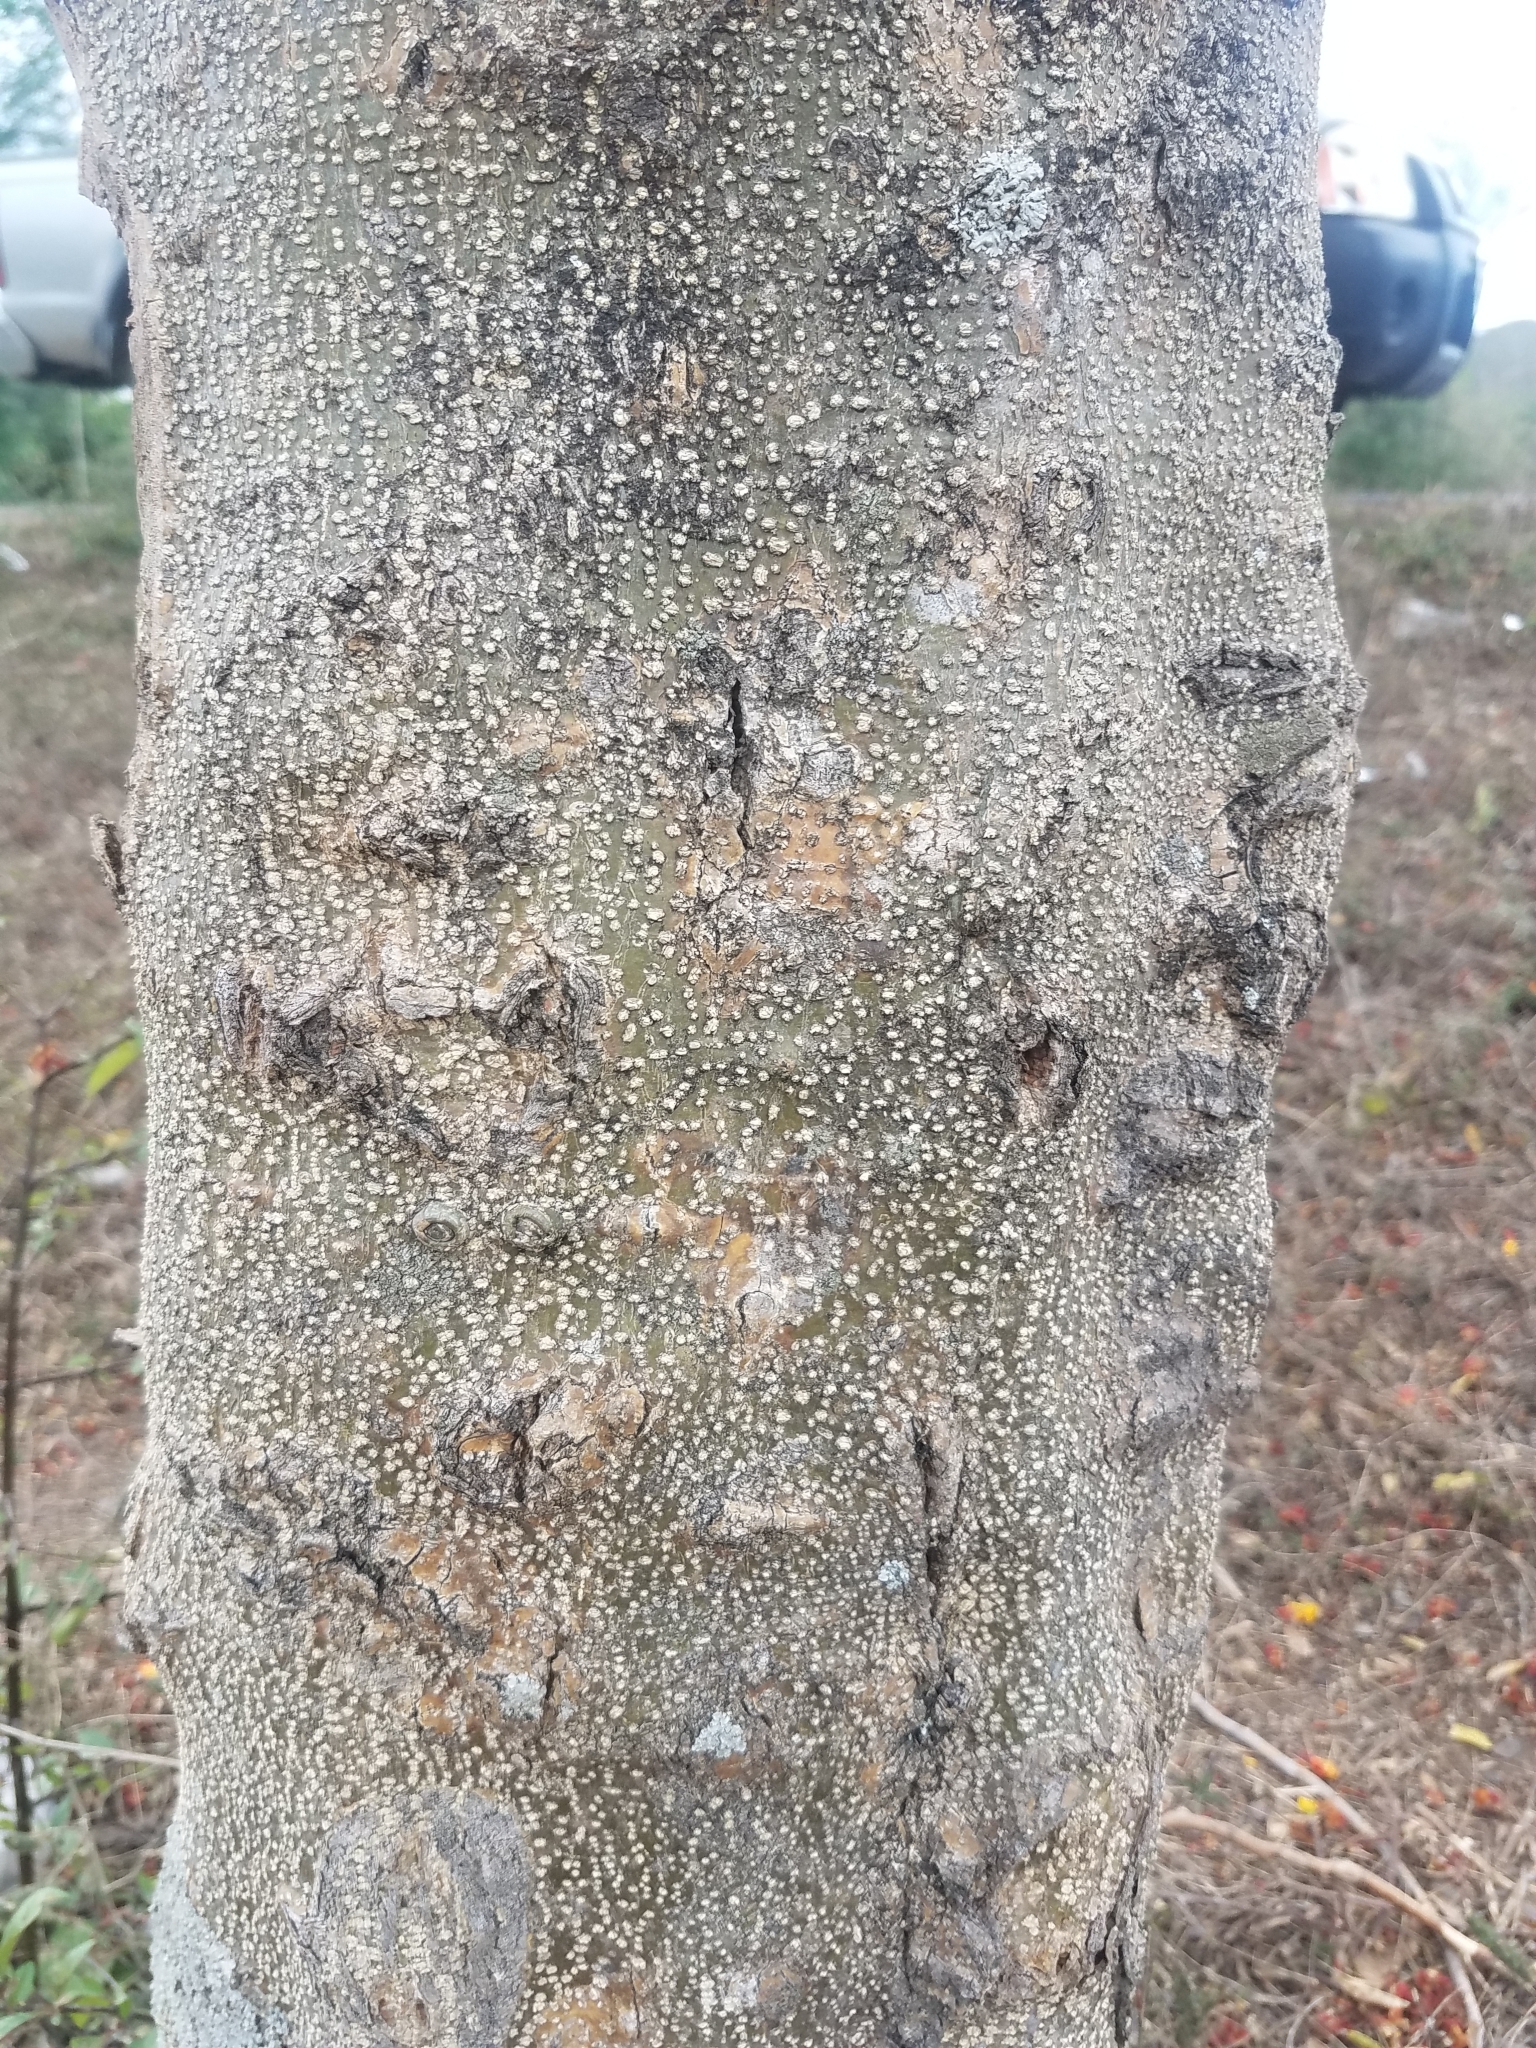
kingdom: Plantae
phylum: Tracheophyta
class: Magnoliopsida
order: Fabales
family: Fabaceae
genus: Erythrostemon
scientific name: Erythrostemon exostemma
